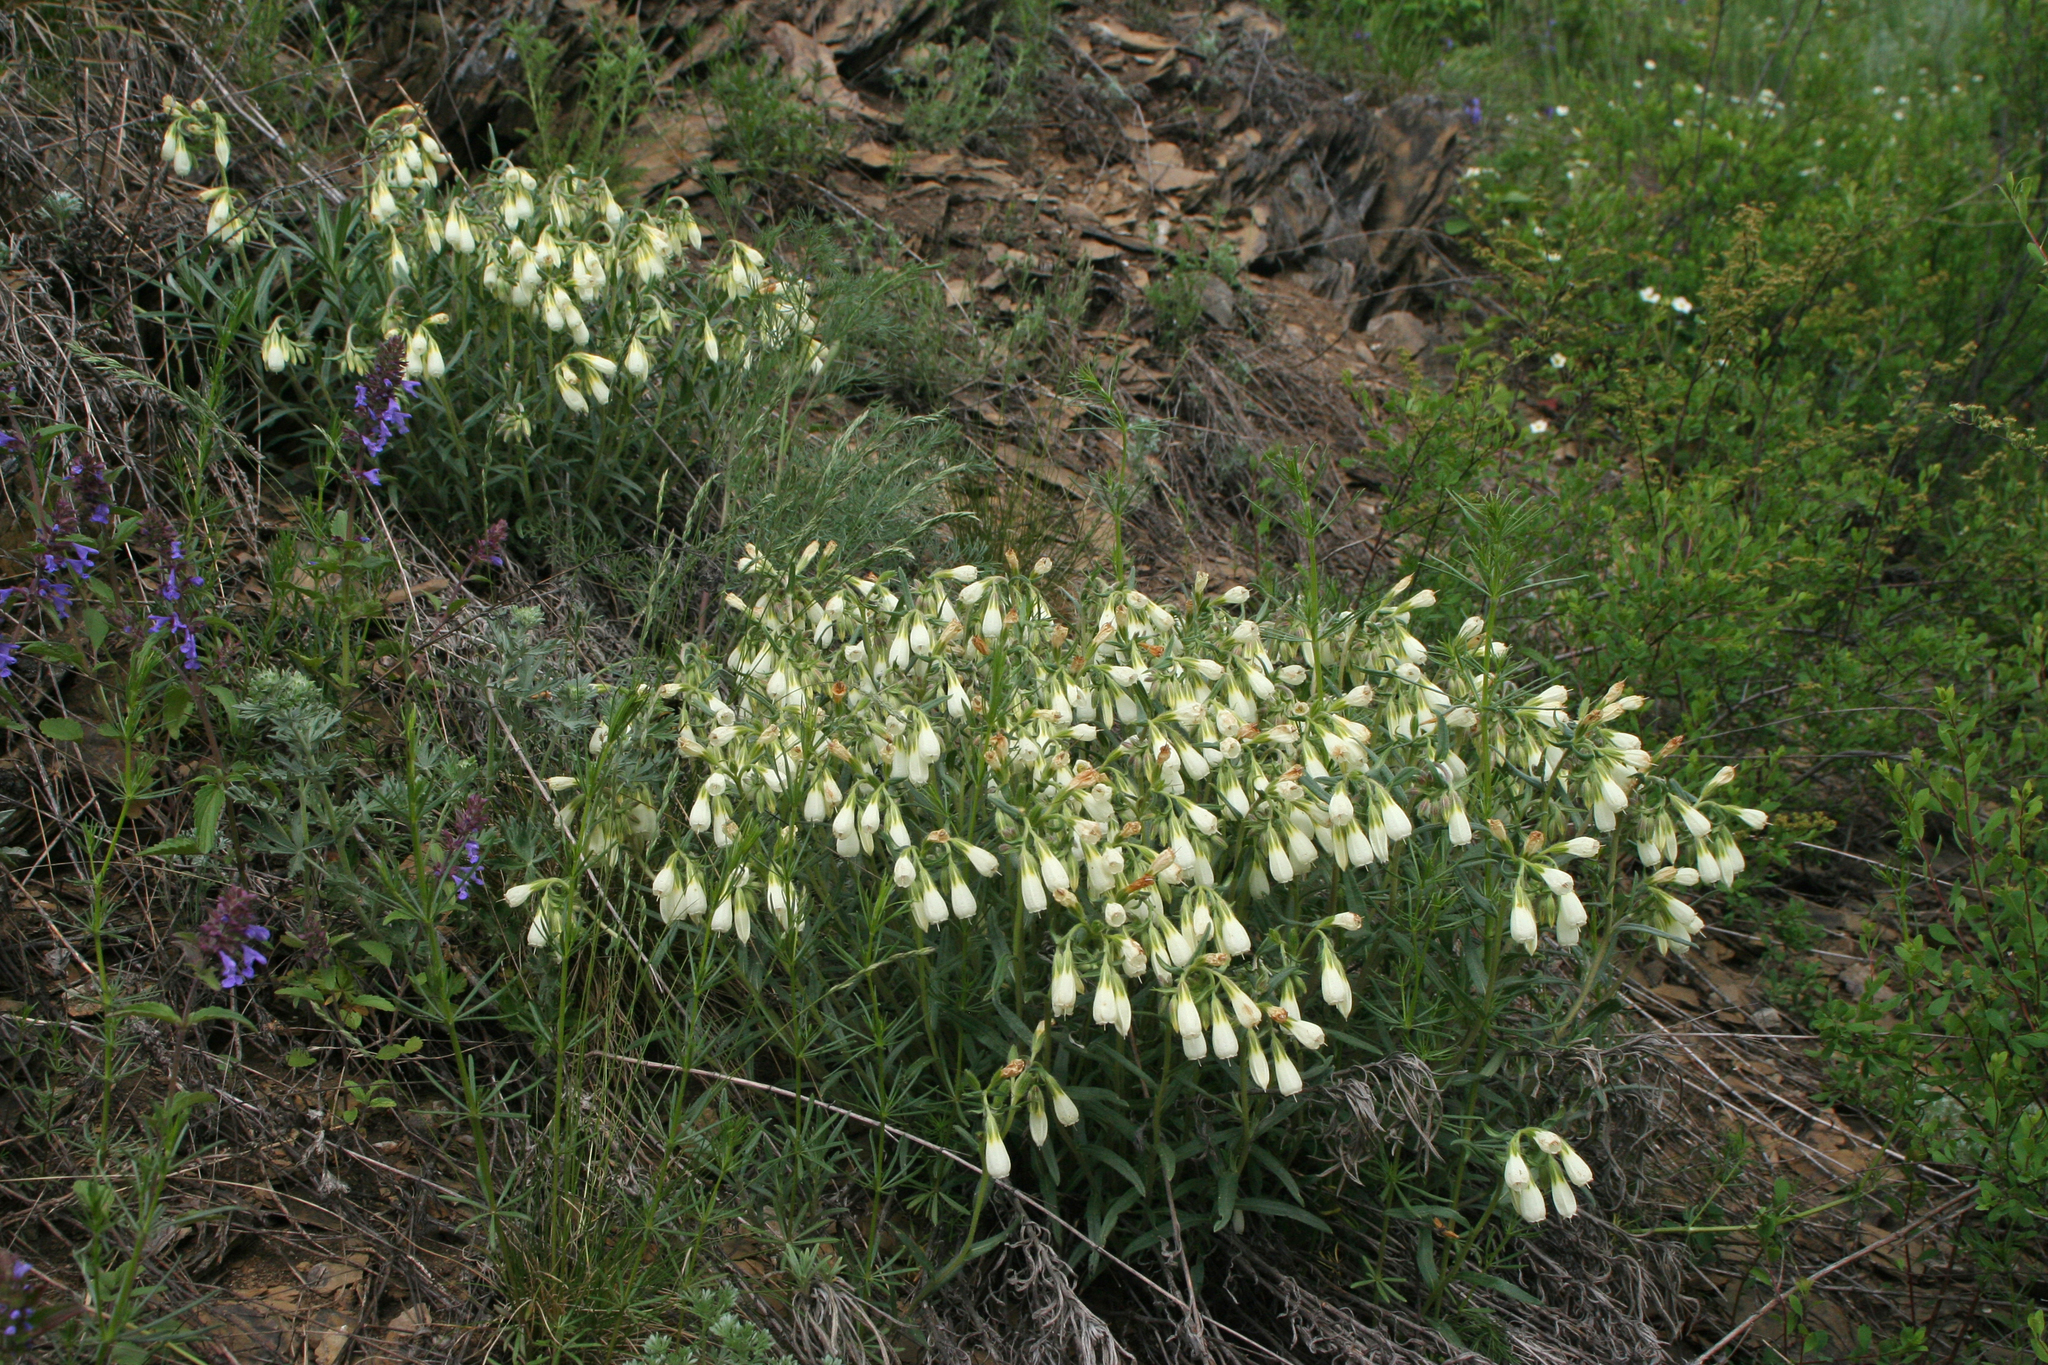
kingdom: Plantae
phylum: Tracheophyta
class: Magnoliopsida
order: Boraginales
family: Boraginaceae
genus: Onosma
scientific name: Onosma simplicissima
